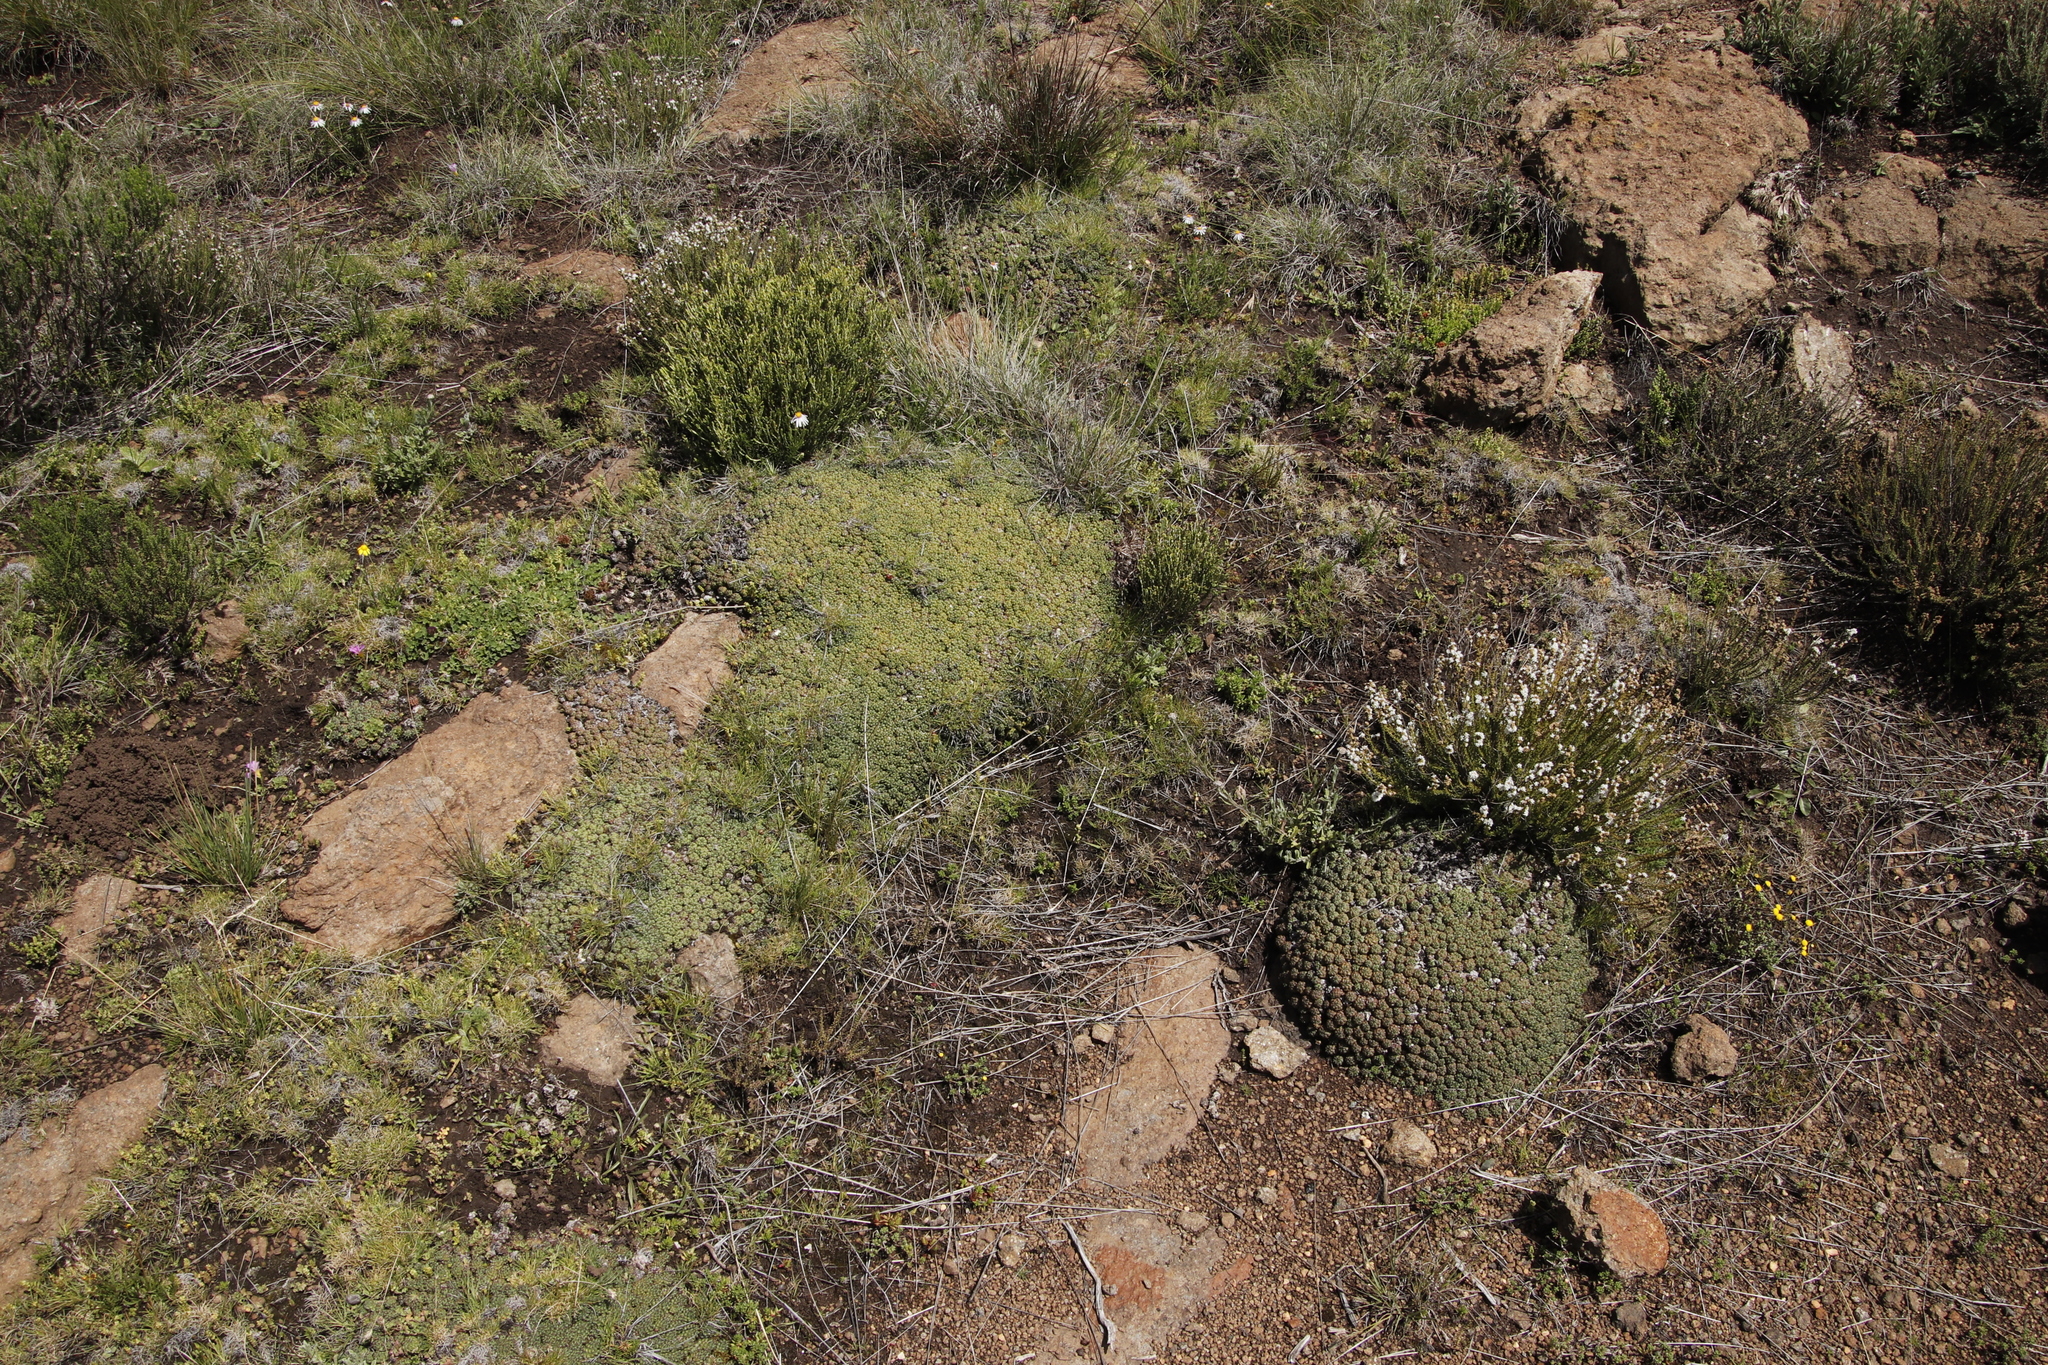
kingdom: Plantae
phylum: Tracheophyta
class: Magnoliopsida
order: Malpighiales
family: Euphorbiaceae
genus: Euphorbia
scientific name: Euphorbia clavarioides
